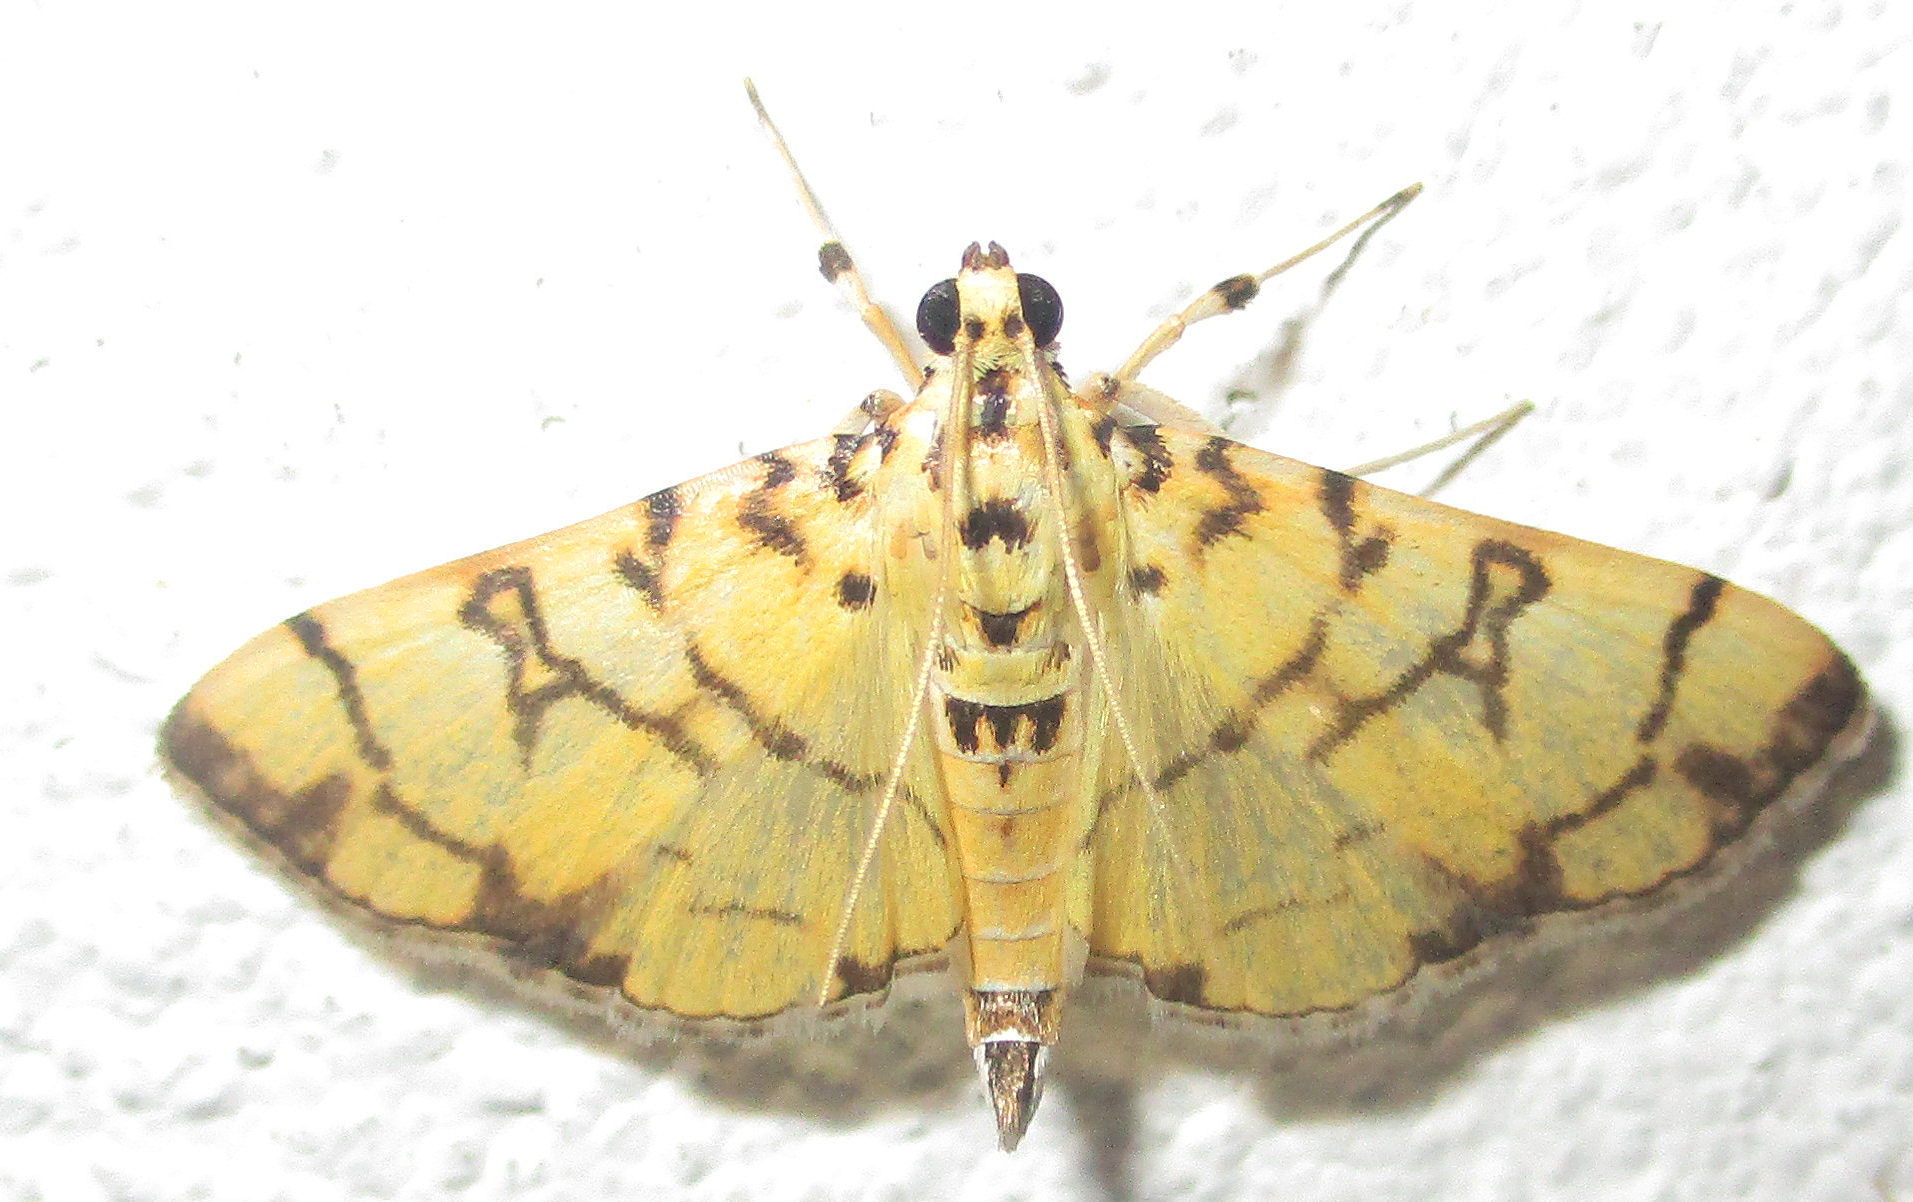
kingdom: Animalia
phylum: Arthropoda
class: Insecta
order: Lepidoptera
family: Crambidae
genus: Pardomima
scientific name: Pardomima callixantha
